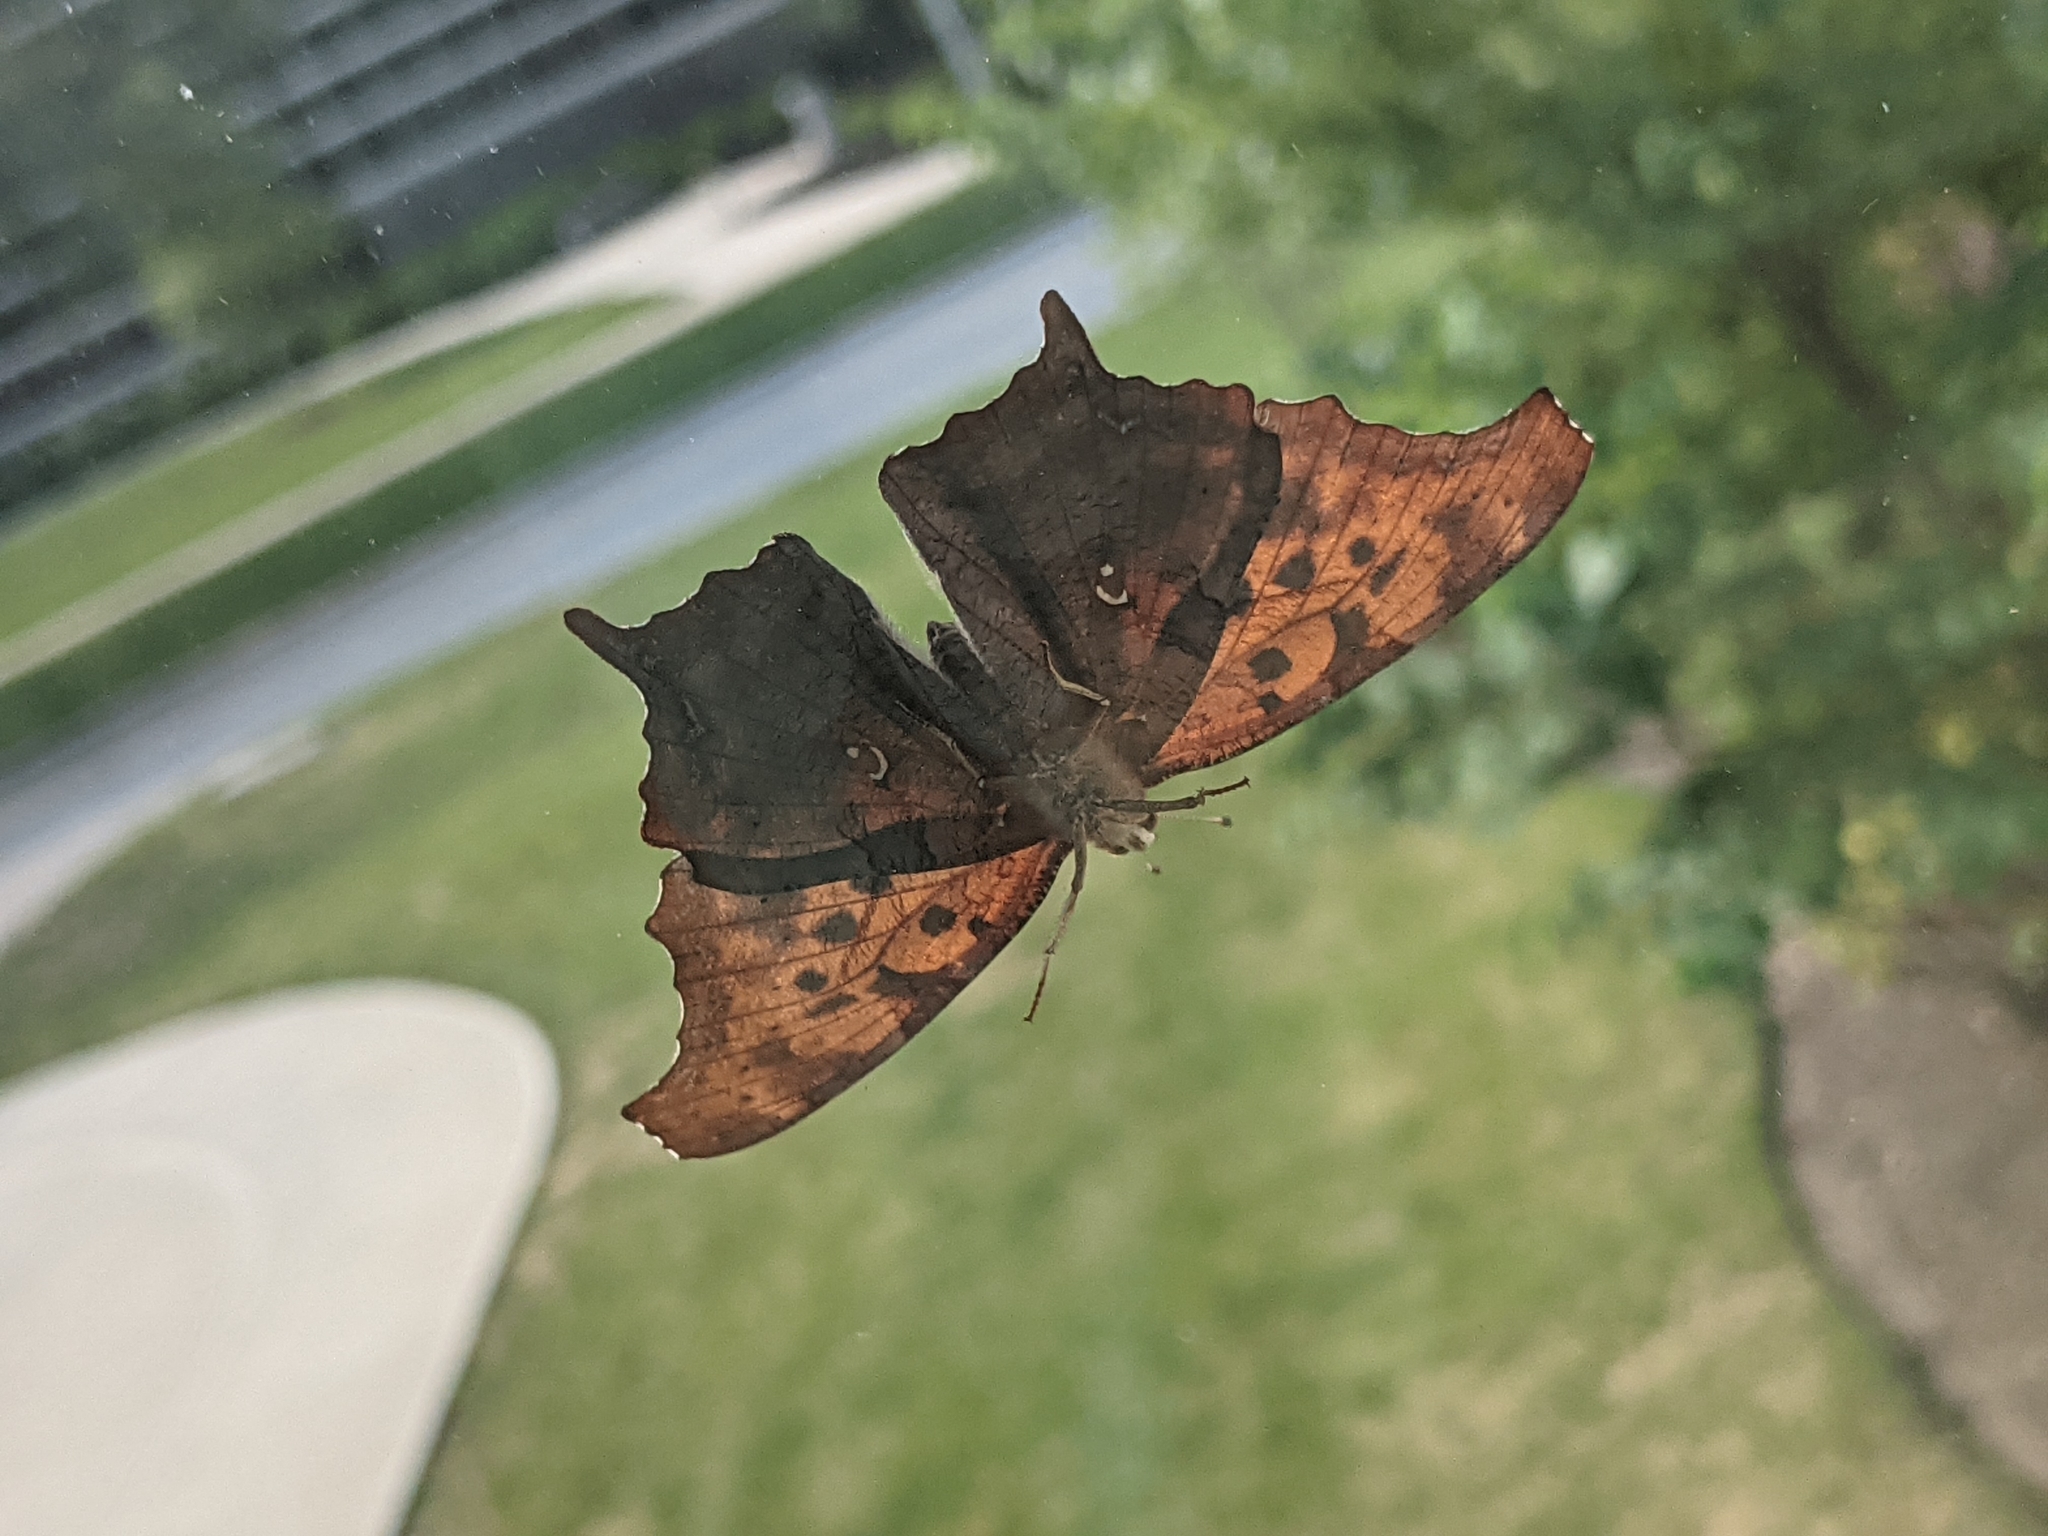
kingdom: Animalia
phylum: Arthropoda
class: Insecta
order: Lepidoptera
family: Nymphalidae
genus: Polygonia
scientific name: Polygonia interrogationis
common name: Question mark
